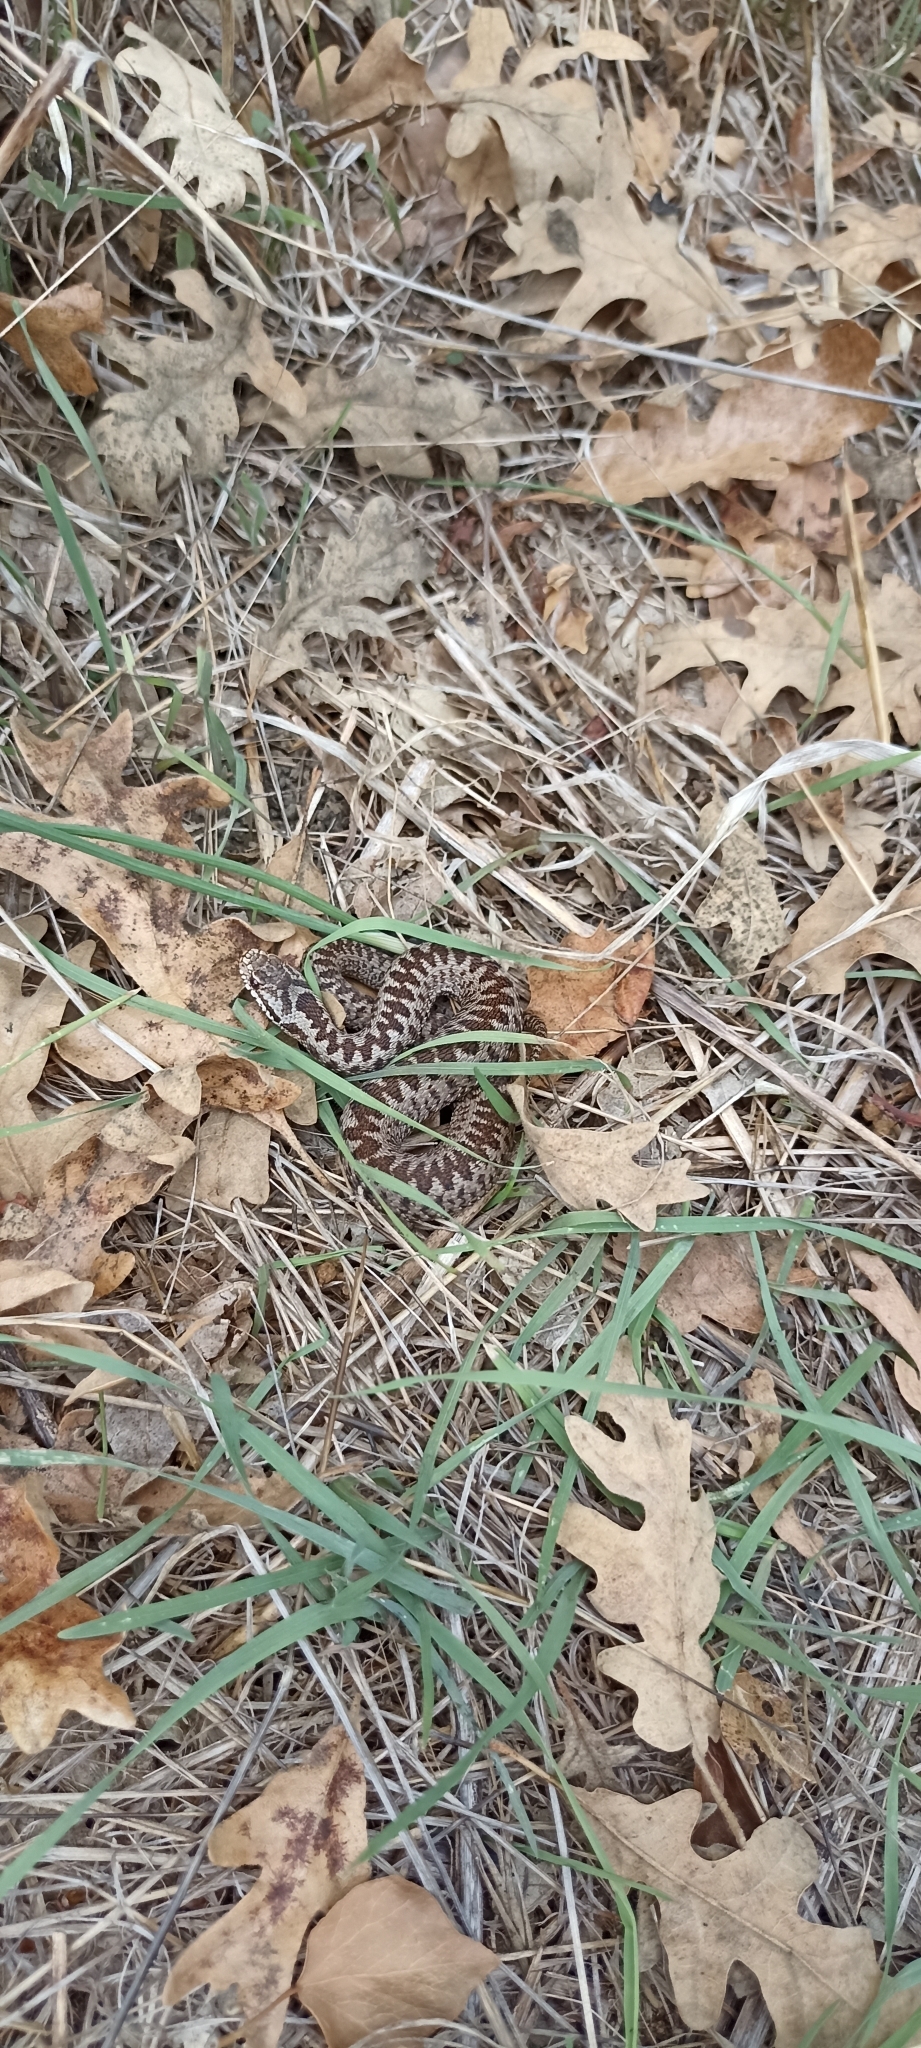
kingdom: Animalia
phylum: Chordata
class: Squamata
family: Viperidae
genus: Vipera
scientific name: Vipera berus
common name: Adder
